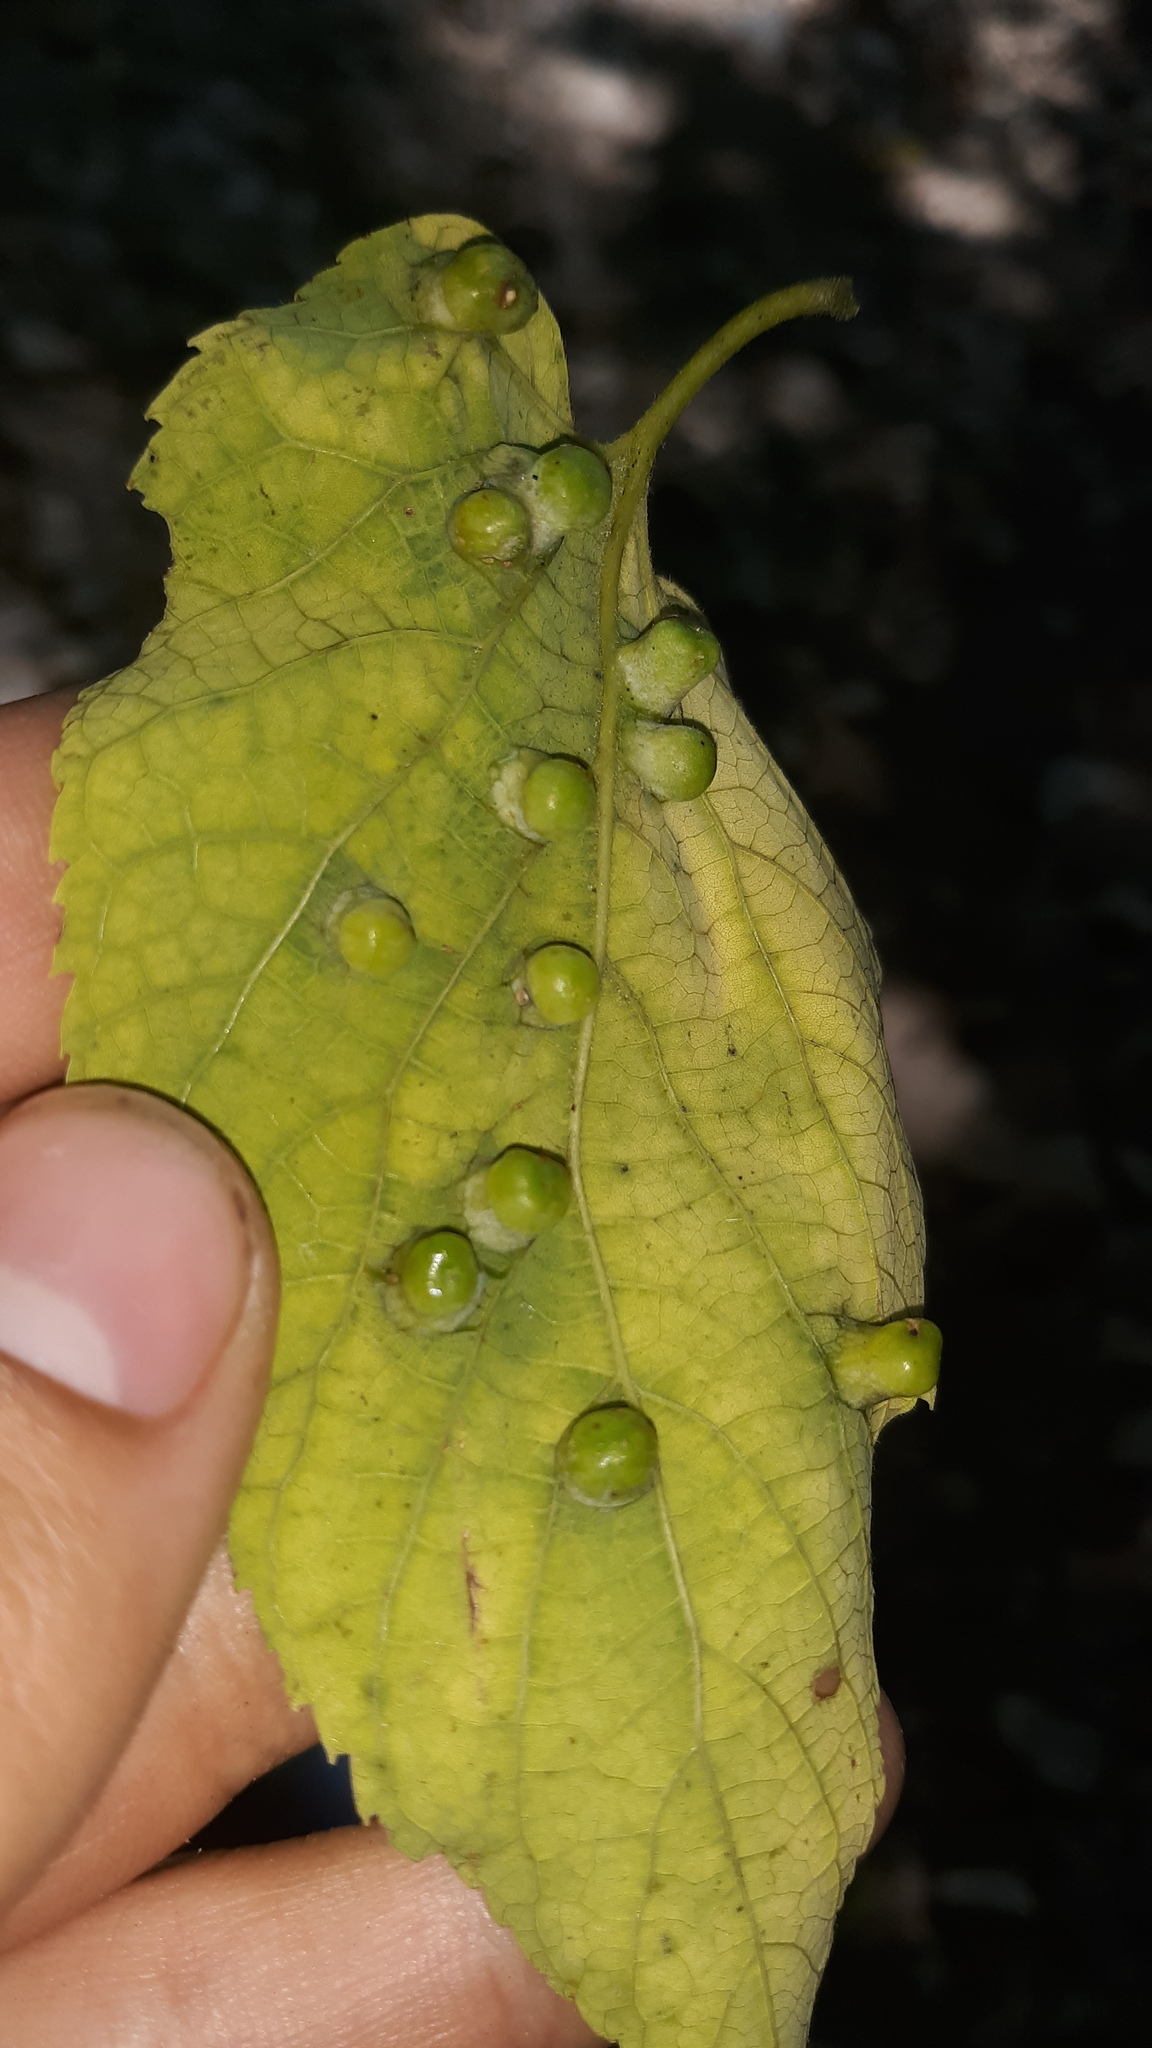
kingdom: Animalia
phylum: Arthropoda
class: Insecta
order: Hemiptera
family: Aphalaridae
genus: Pachypsylla
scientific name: Pachypsylla celtidismamma
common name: Hackberry nipplegall psyllid
